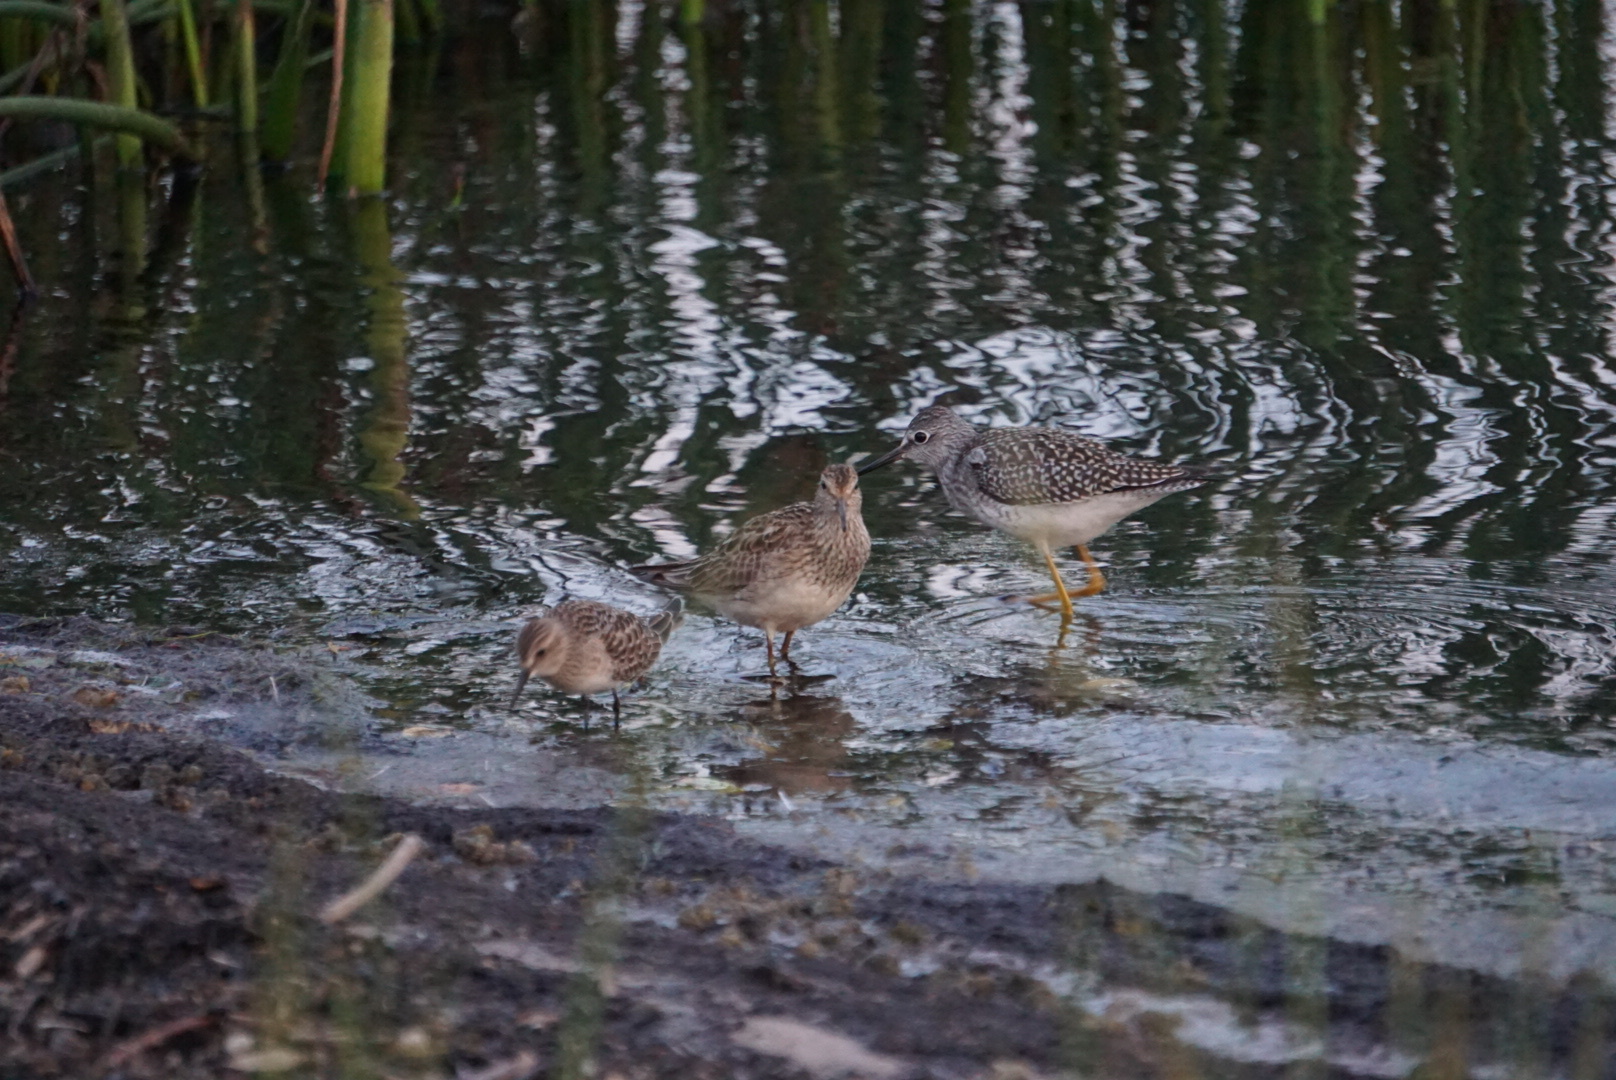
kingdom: Animalia
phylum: Chordata
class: Aves
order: Charadriiformes
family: Scolopacidae
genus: Tringa
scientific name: Tringa flavipes
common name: Lesser yellowlegs
